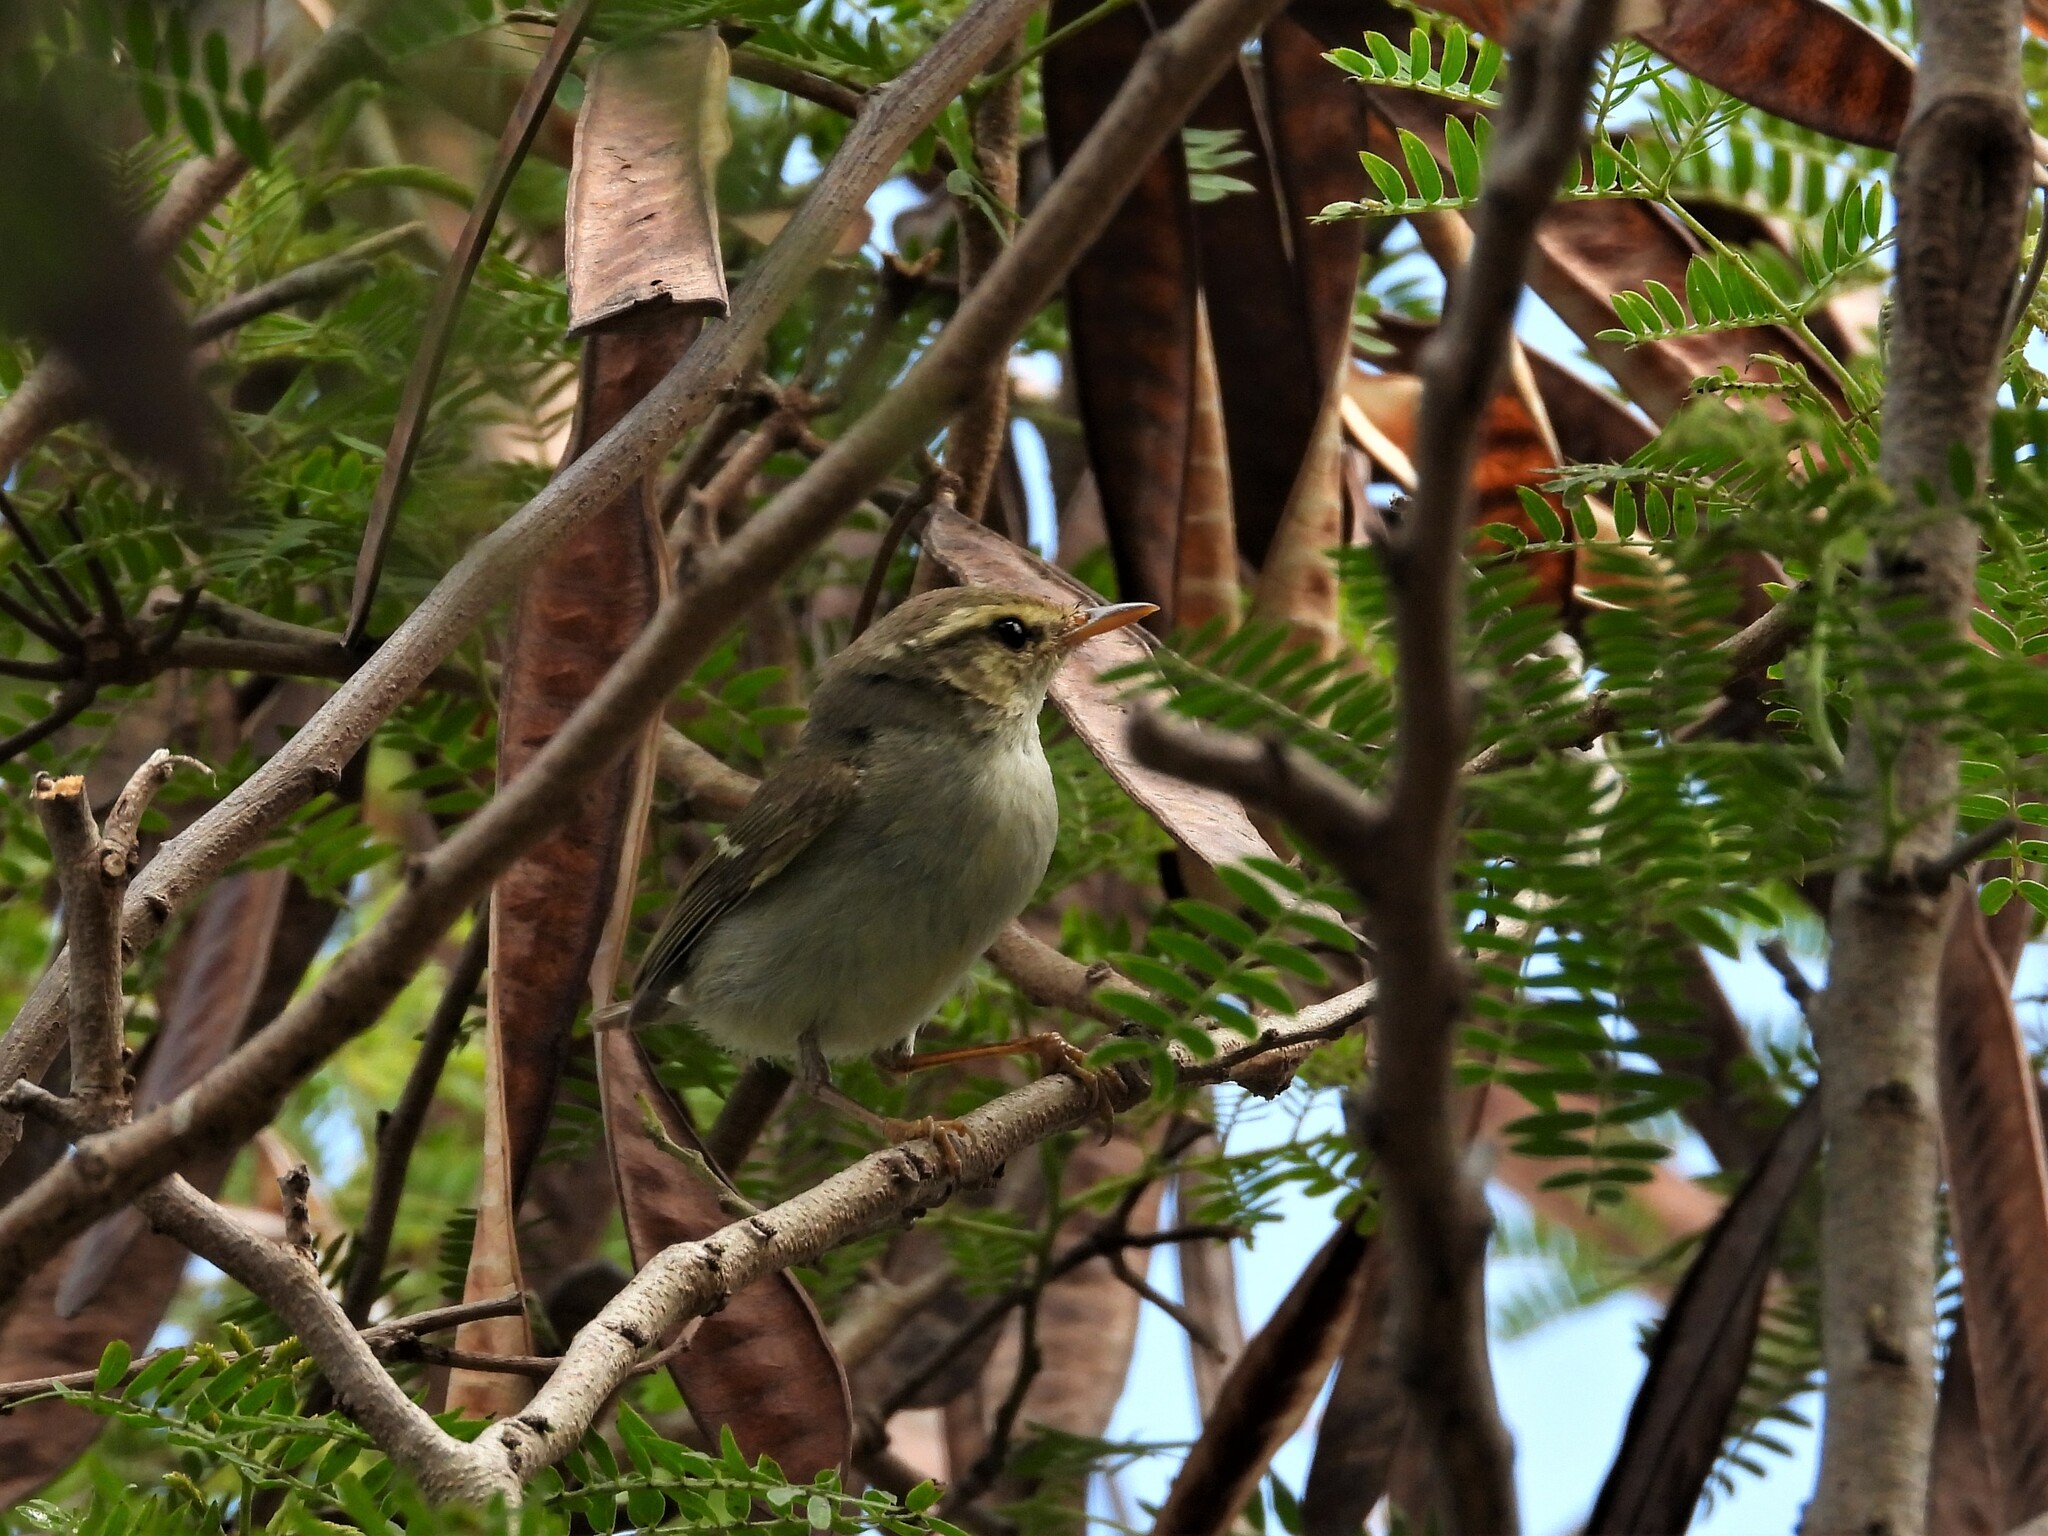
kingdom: Animalia
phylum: Chordata
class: Aves
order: Passeriformes
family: Phylloscopidae
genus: Phylloscopus
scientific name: Phylloscopus plumbeitarsus
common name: Two-barred warbler
